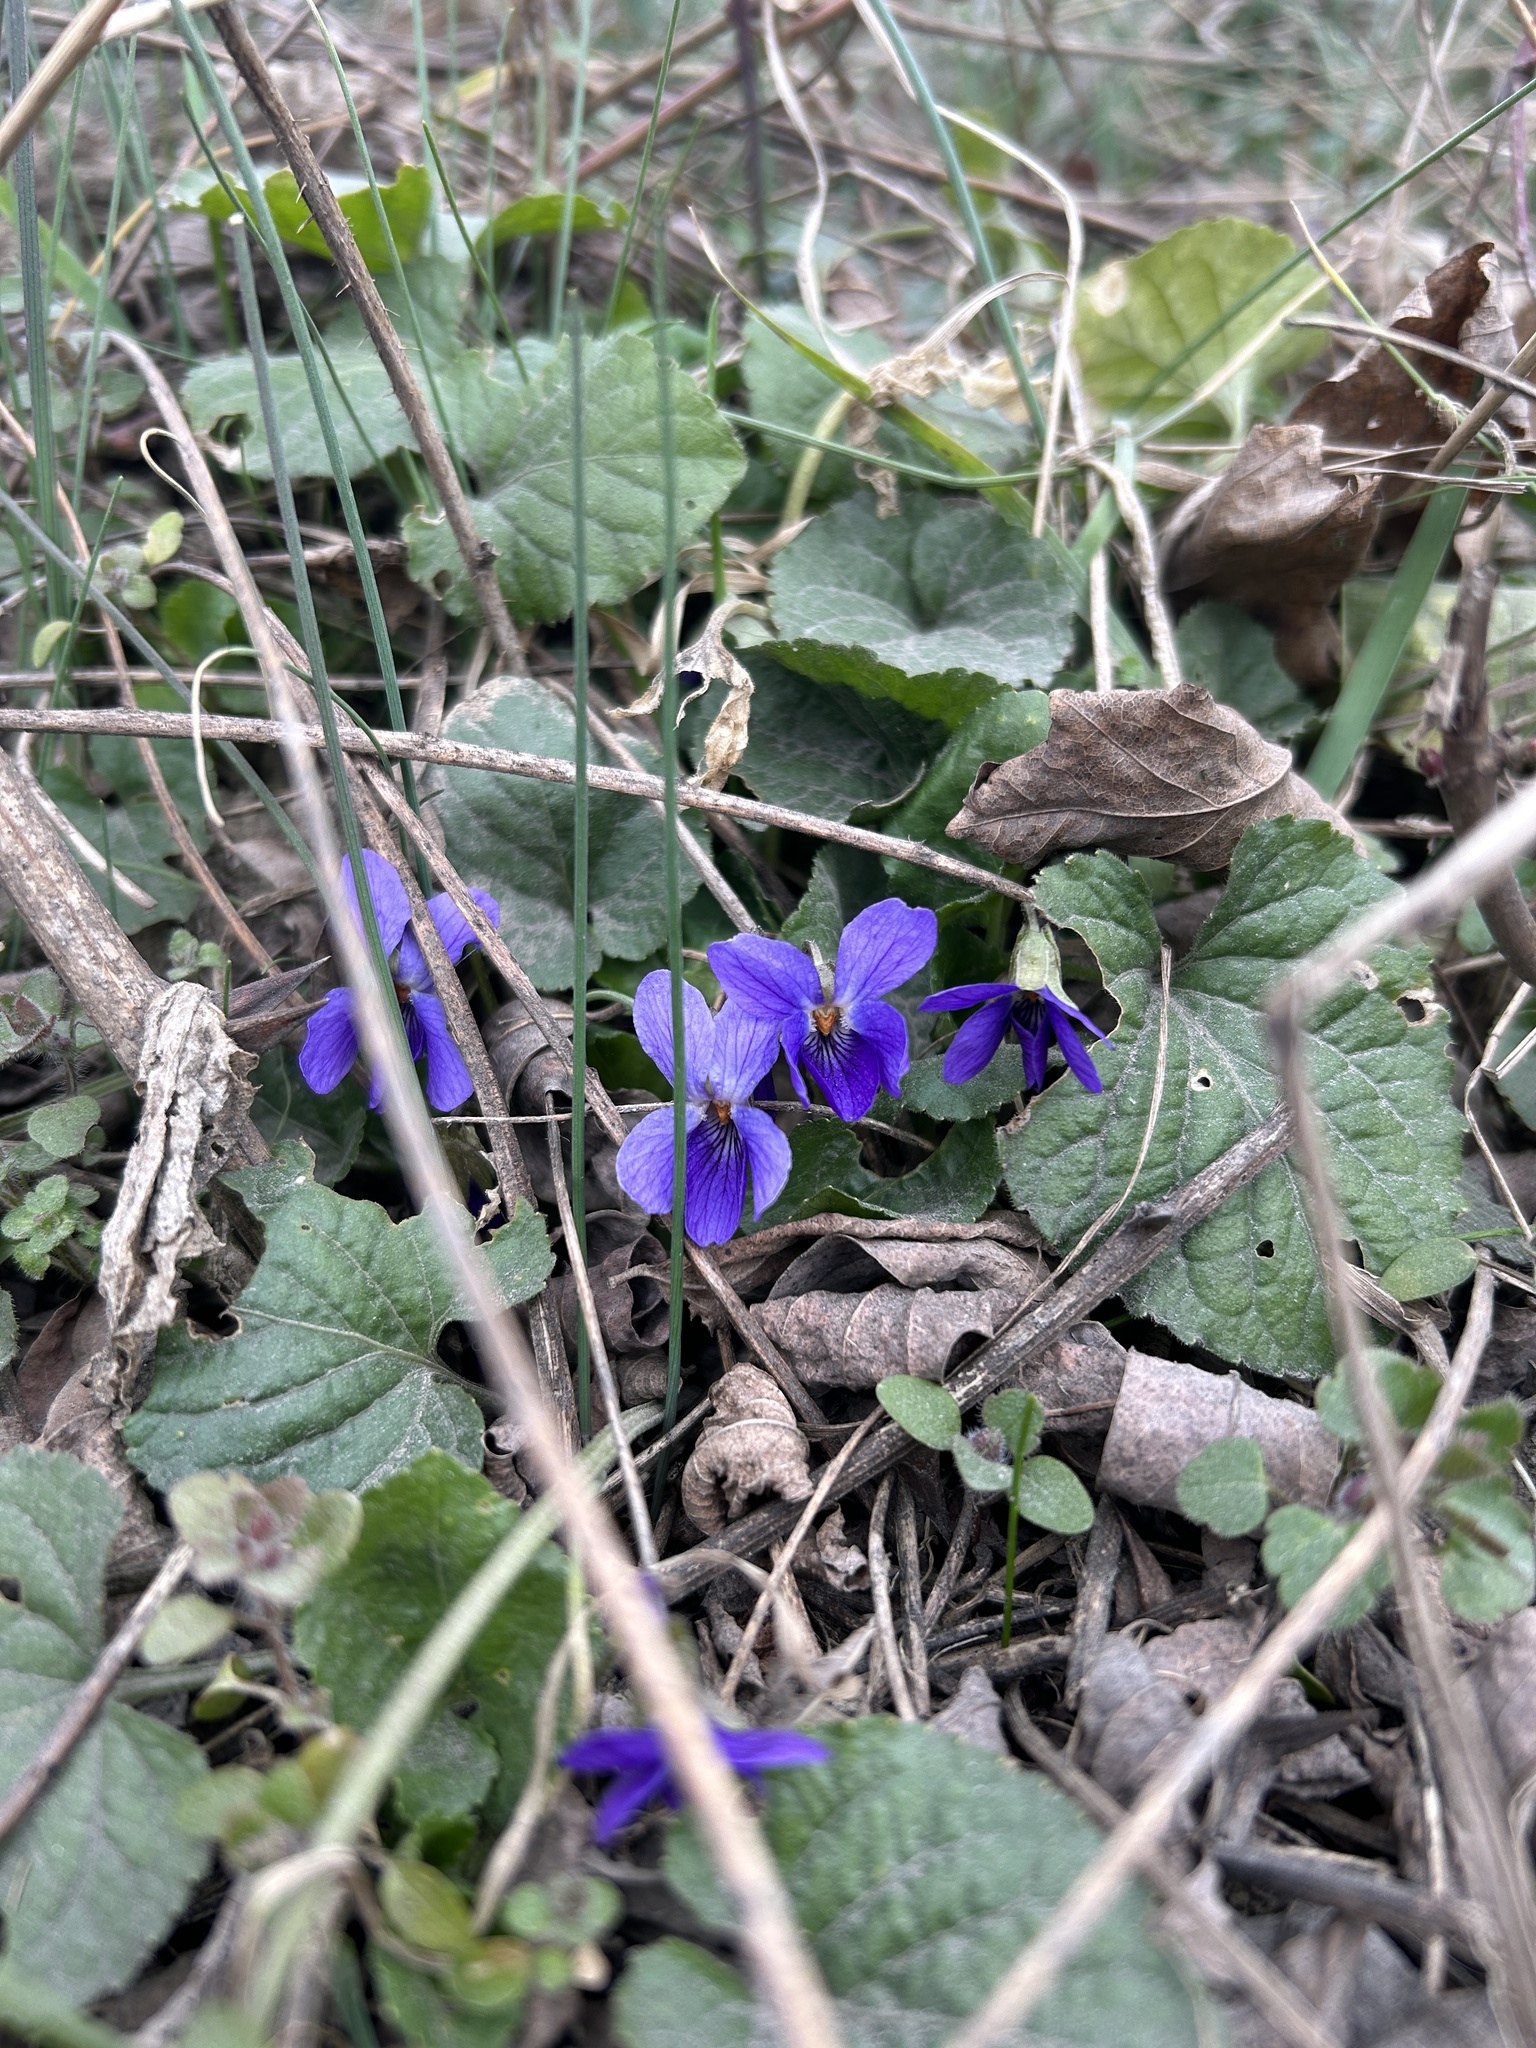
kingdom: Plantae
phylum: Tracheophyta
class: Magnoliopsida
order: Malpighiales
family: Violaceae
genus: Viola
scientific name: Viola odorata
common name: Sweet violet
